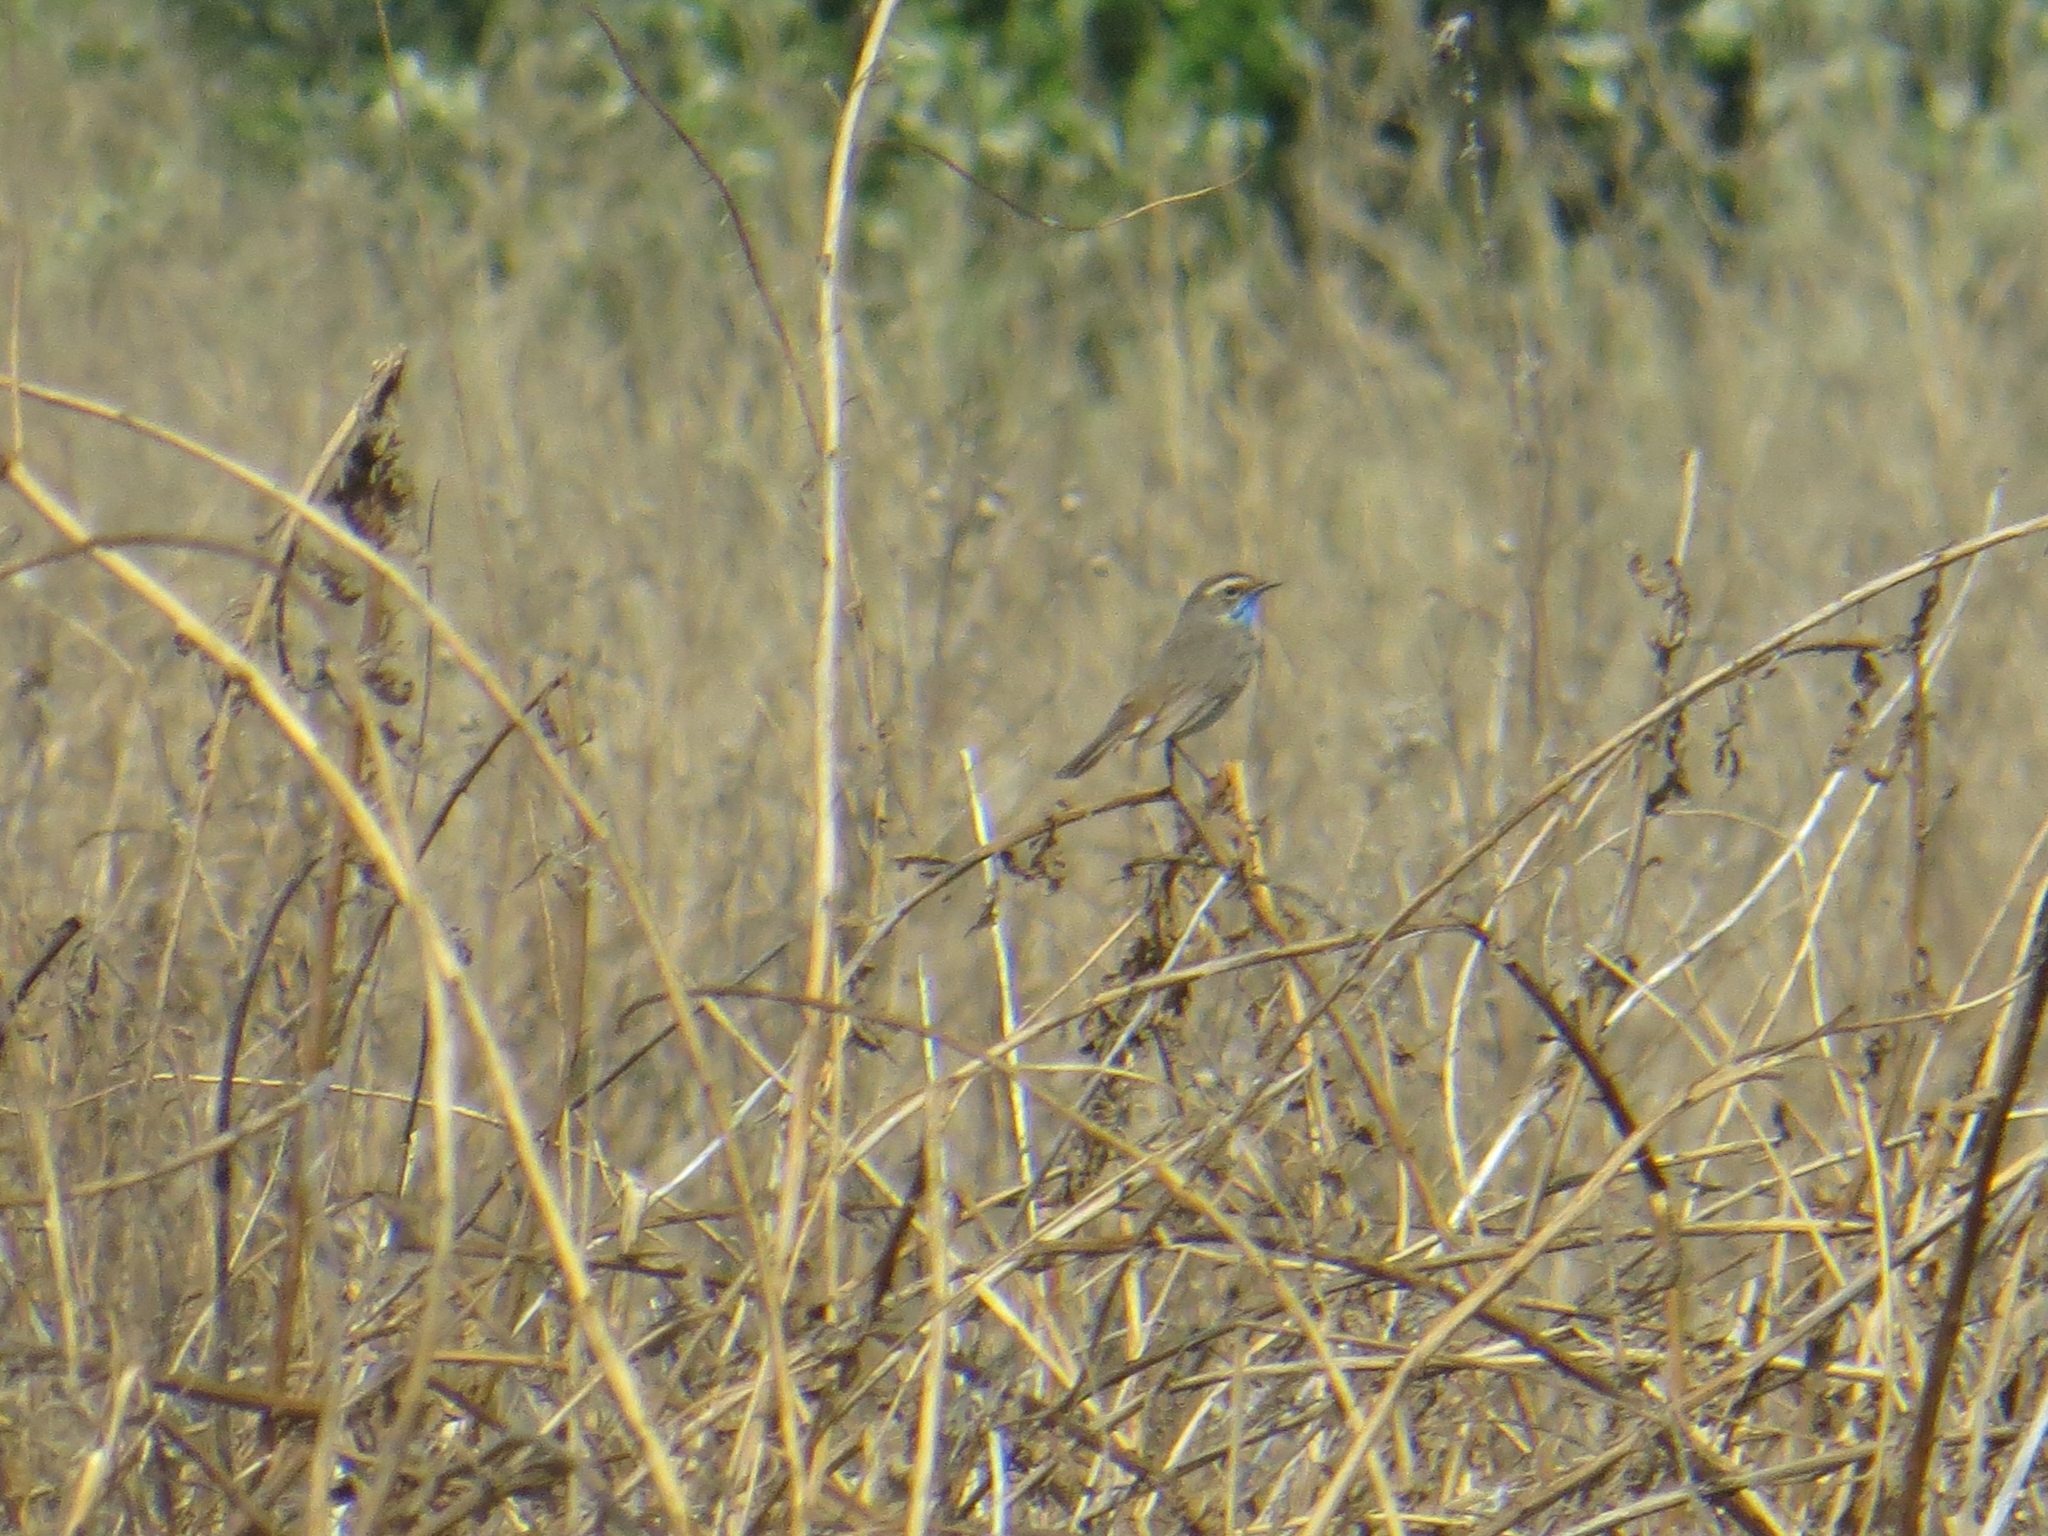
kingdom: Animalia
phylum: Chordata
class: Aves
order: Passeriformes
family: Muscicapidae
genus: Luscinia
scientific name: Luscinia svecica
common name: Bluethroat
